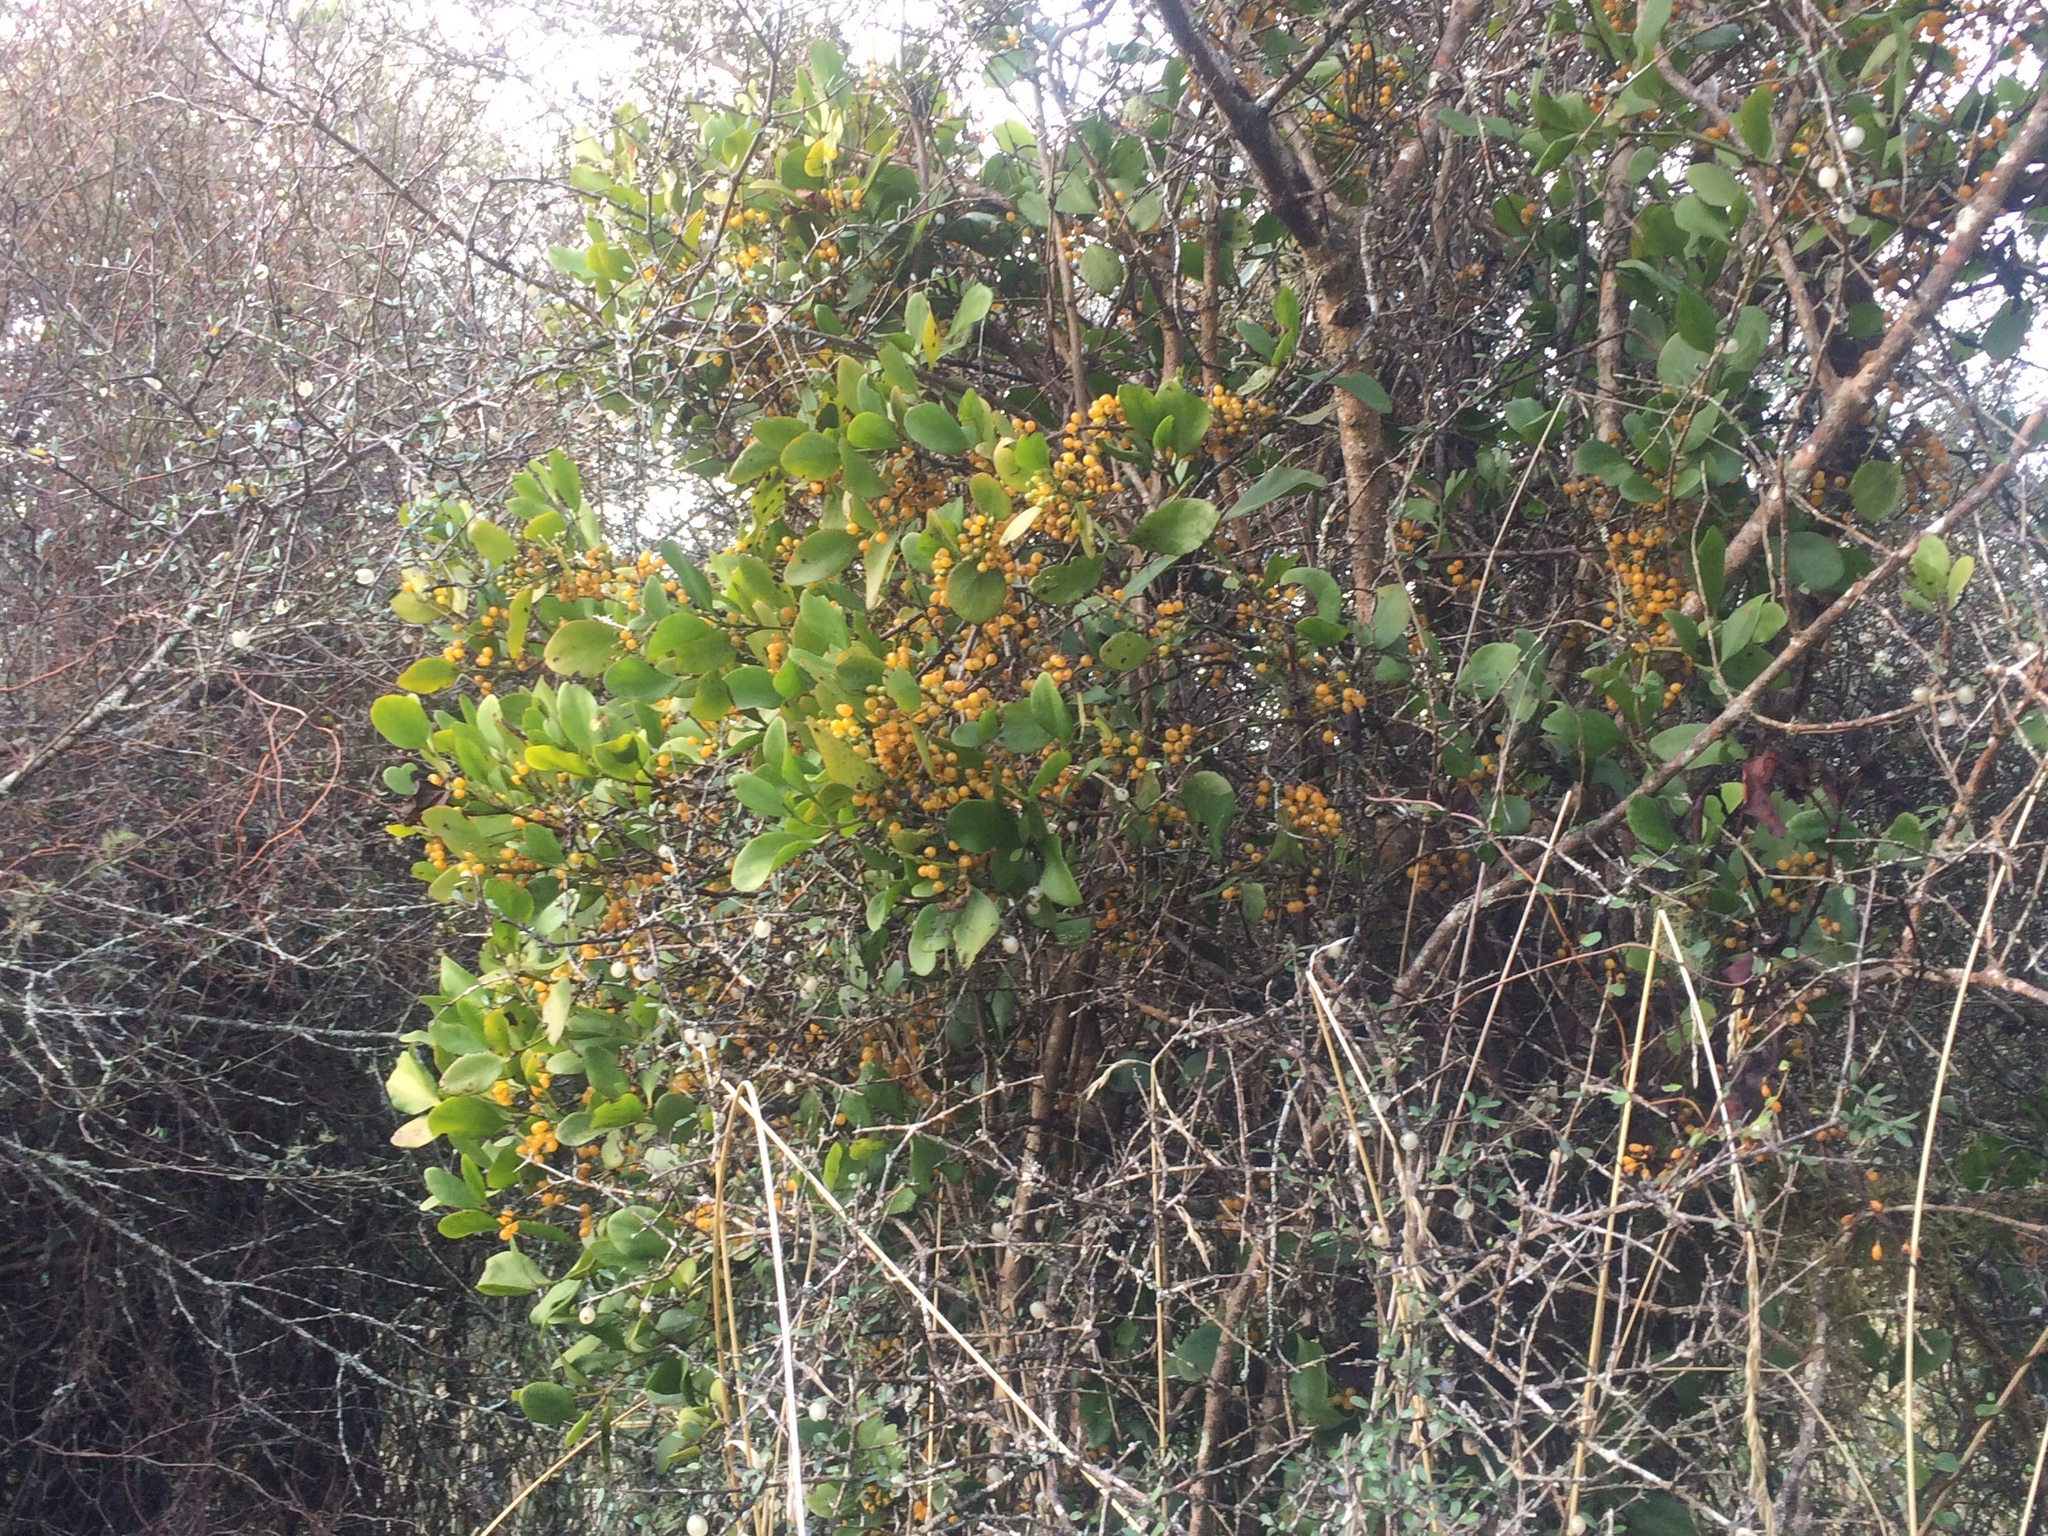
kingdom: Plantae
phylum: Tracheophyta
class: Magnoliopsida
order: Santalales
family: Loranthaceae
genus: Ileostylus
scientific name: Ileostylus micranthus
